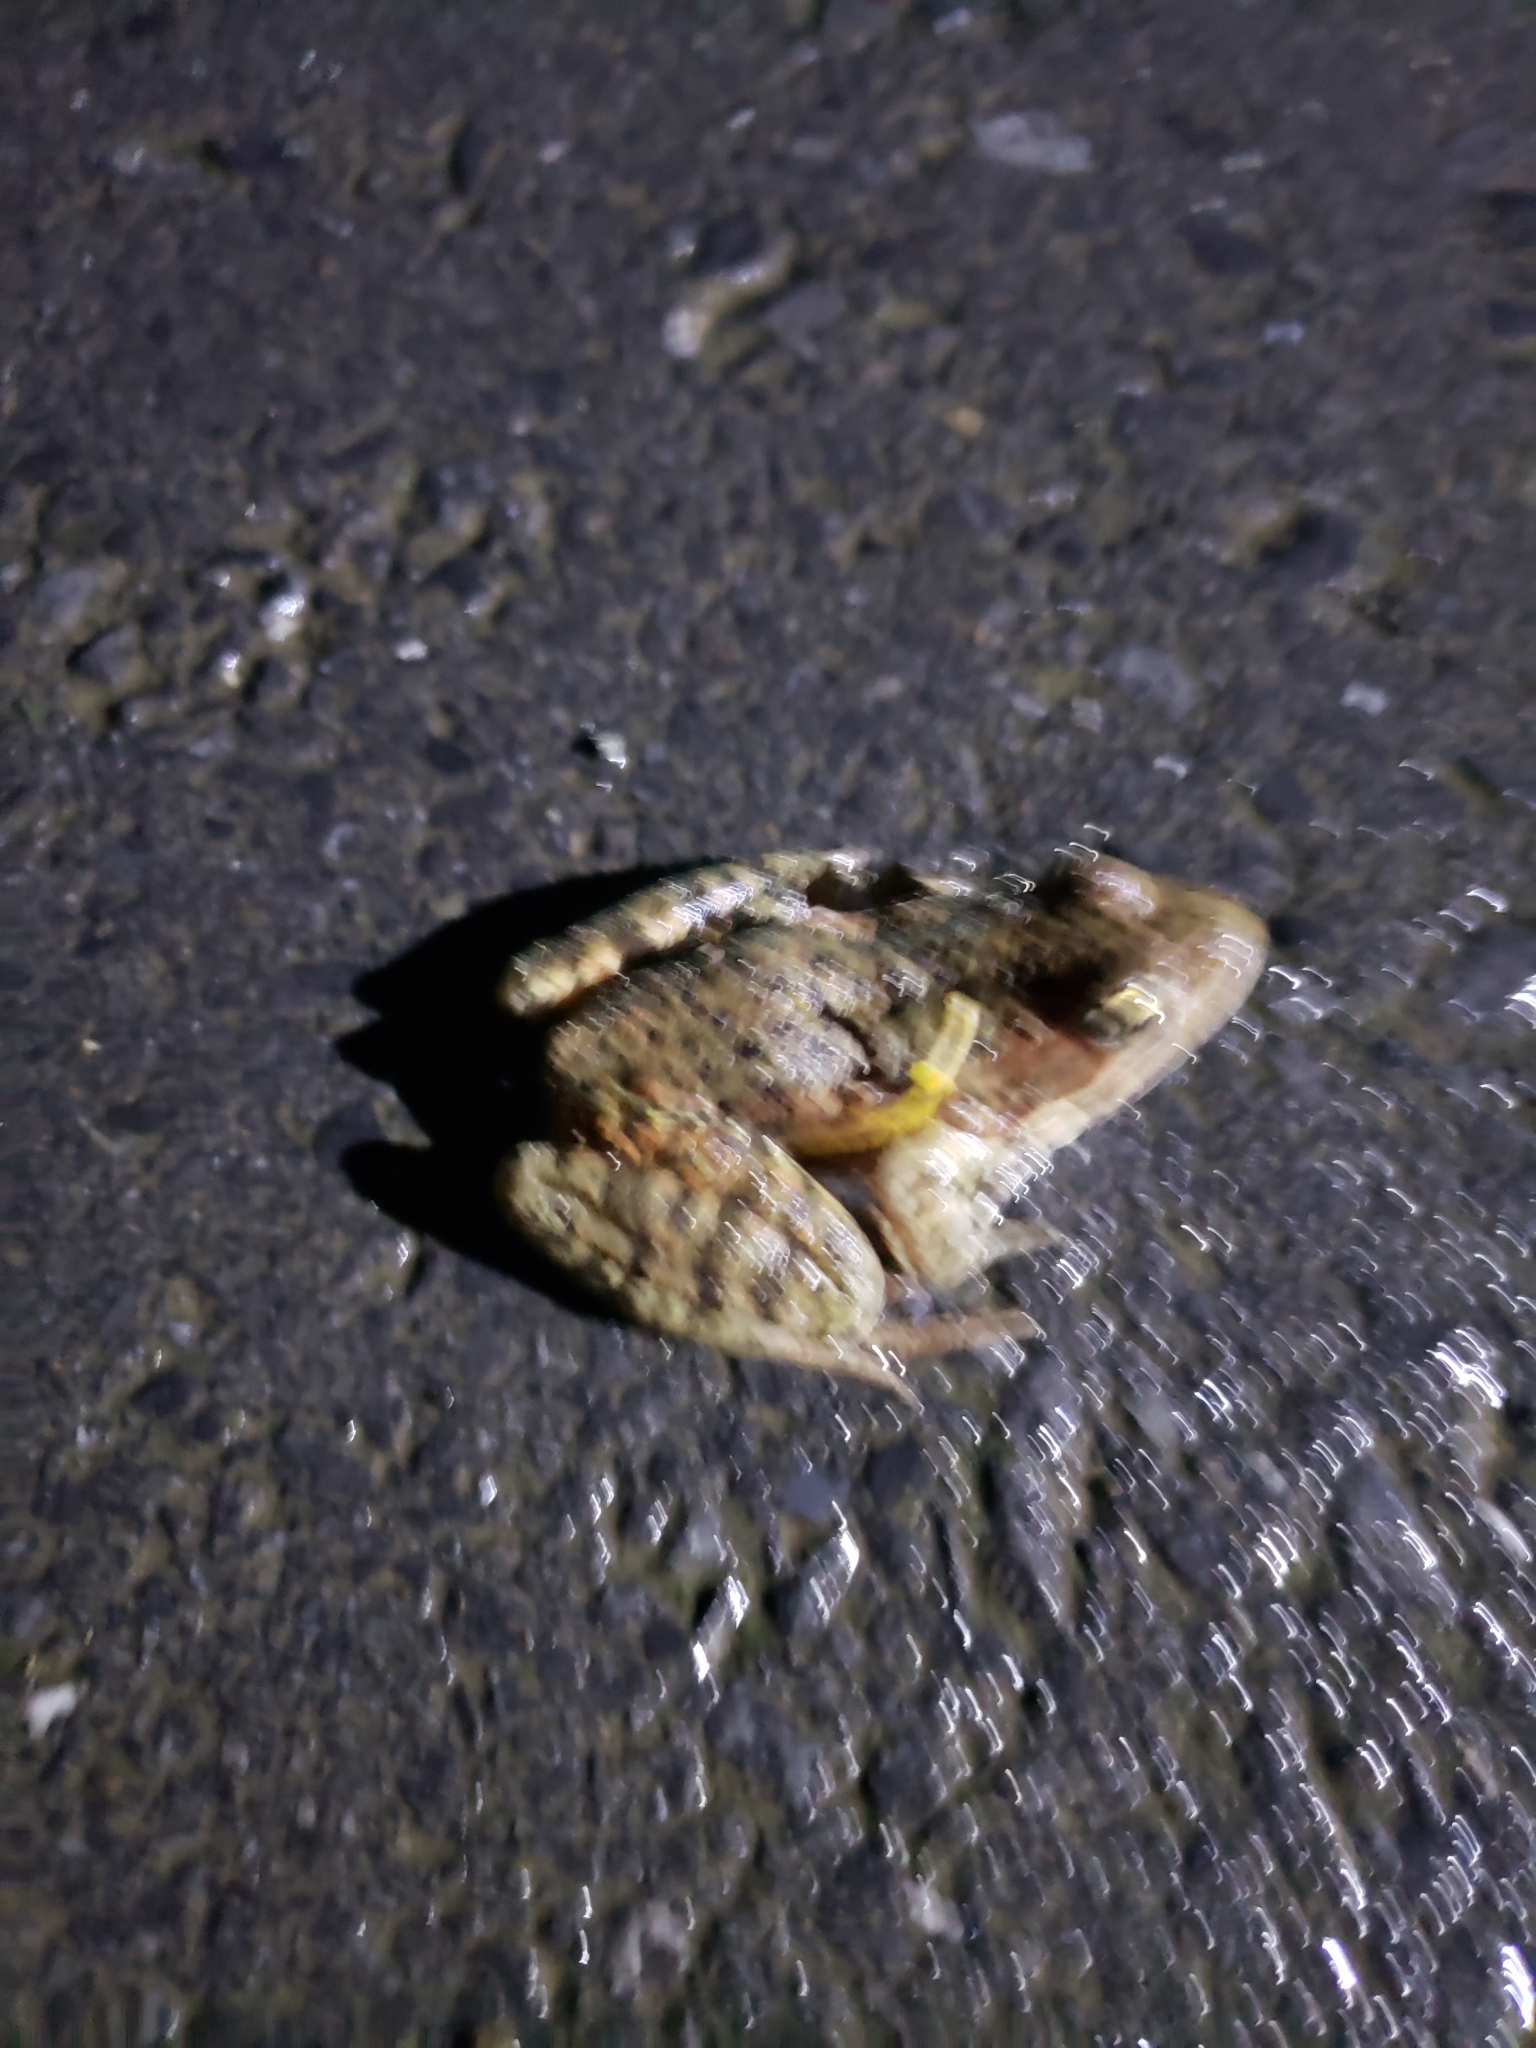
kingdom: Animalia
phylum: Chordata
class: Amphibia
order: Anura
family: Ranidae
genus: Rana
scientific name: Rana draytonii
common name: California red-legged frog
